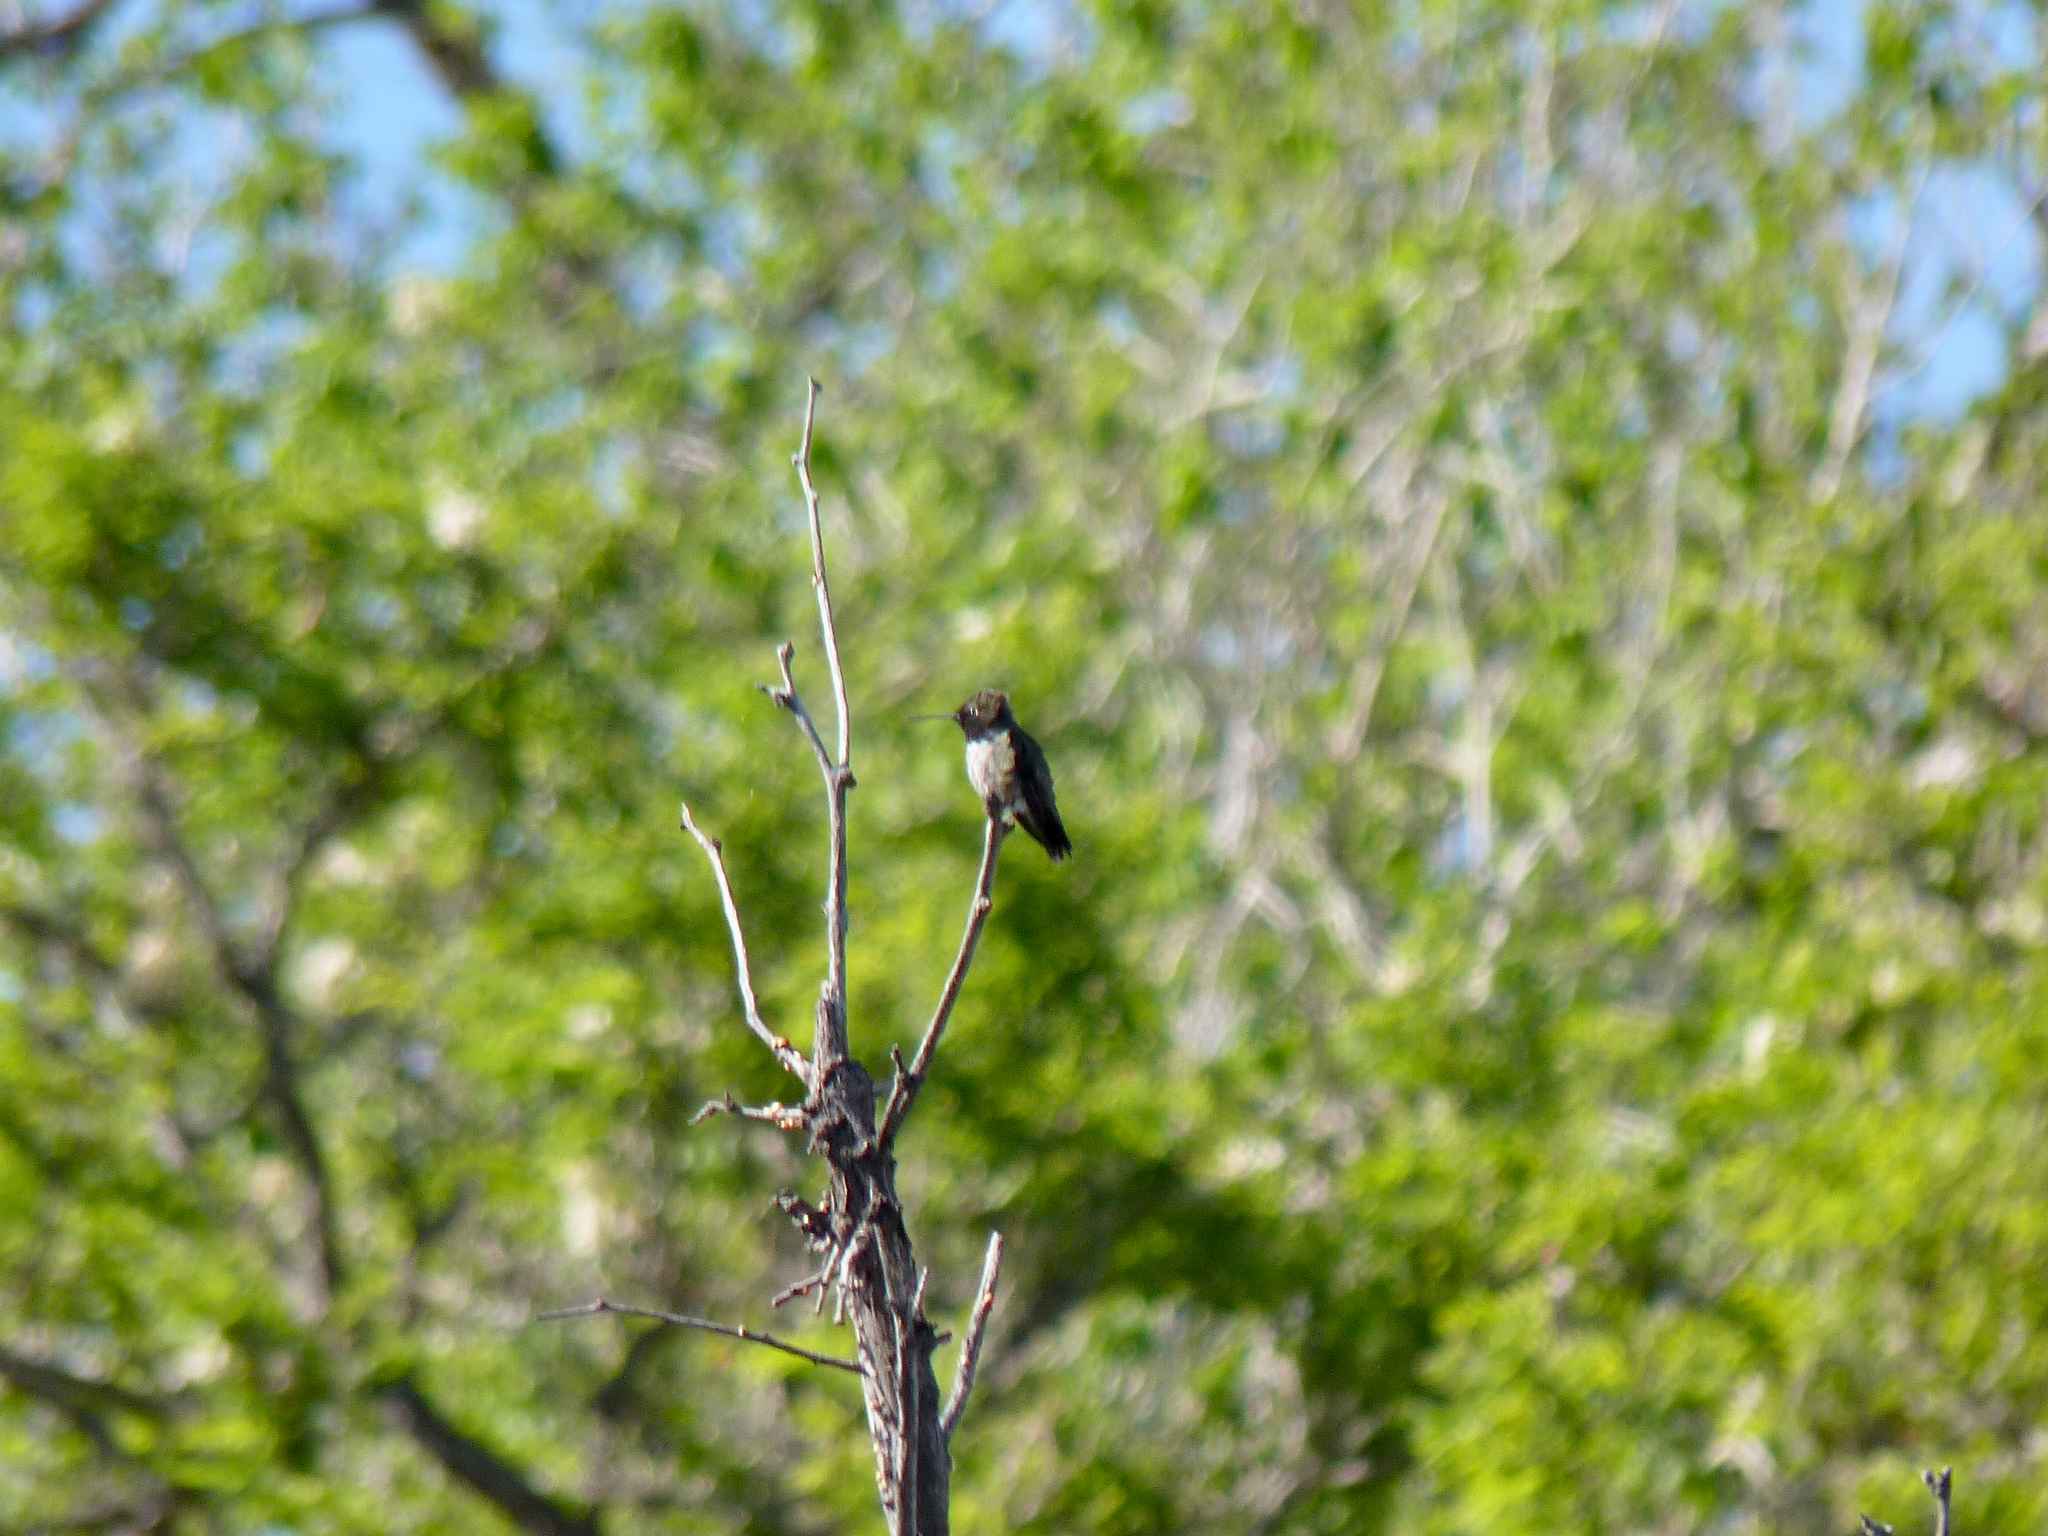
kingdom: Animalia
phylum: Chordata
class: Aves
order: Apodiformes
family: Trochilidae
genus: Archilochus
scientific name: Archilochus alexandri
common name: Black-chinned hummingbird
